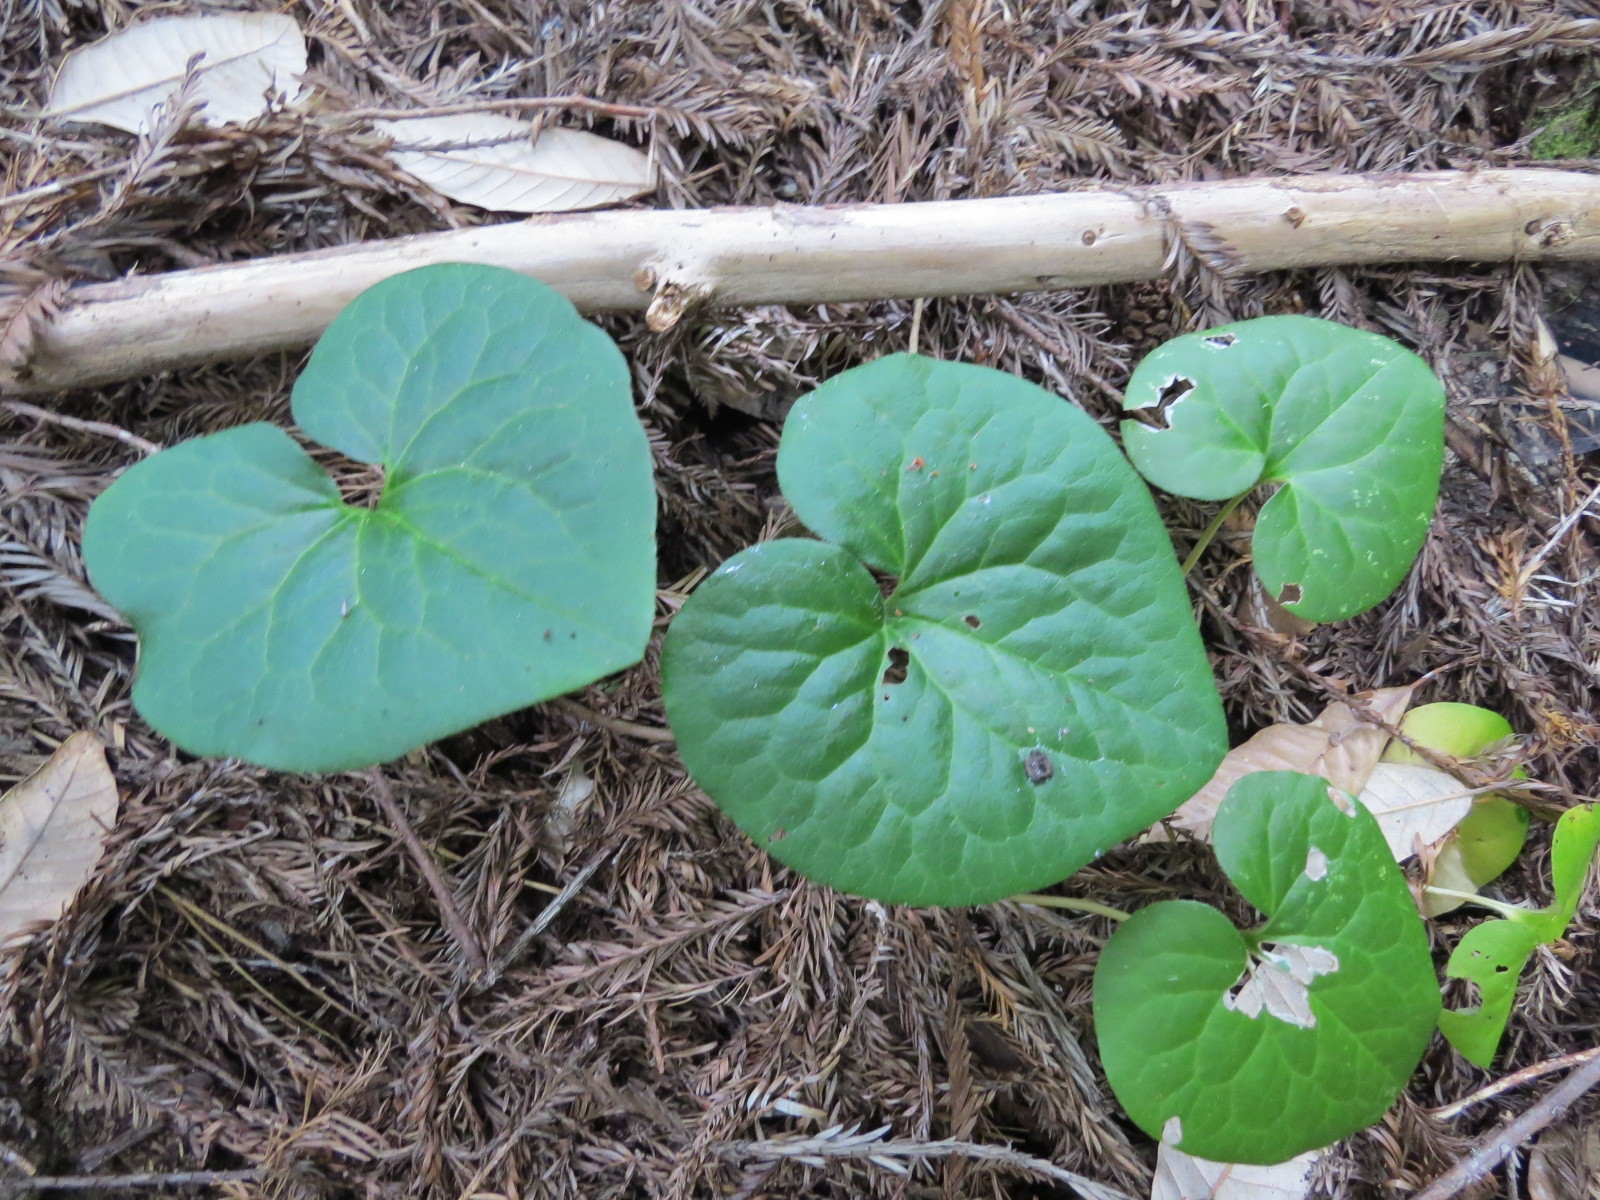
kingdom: Plantae
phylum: Tracheophyta
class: Magnoliopsida
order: Piperales
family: Aristolochiaceae
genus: Asarum
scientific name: Asarum caudatum
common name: Wild ginger
